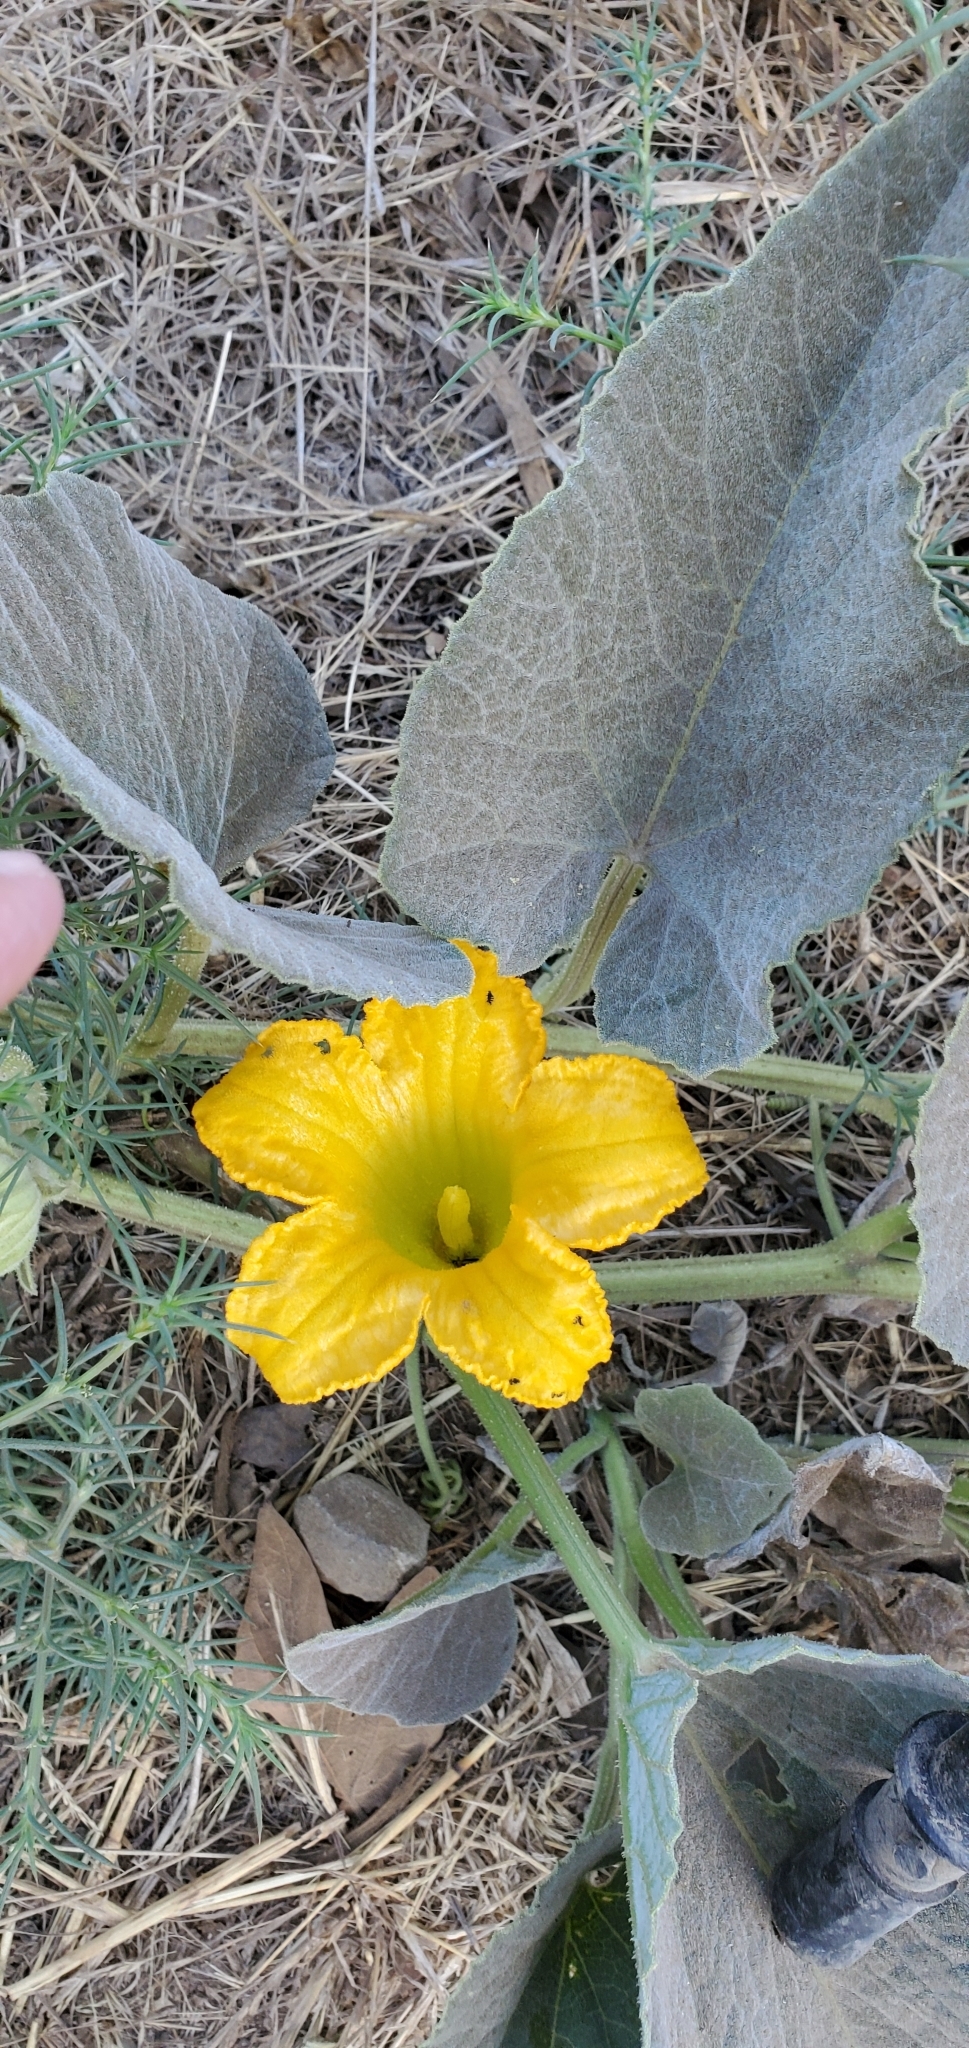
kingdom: Plantae
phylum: Tracheophyta
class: Magnoliopsida
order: Cucurbitales
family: Cucurbitaceae
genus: Cucurbita
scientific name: Cucurbita foetidissima
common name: Buffalo gourd
